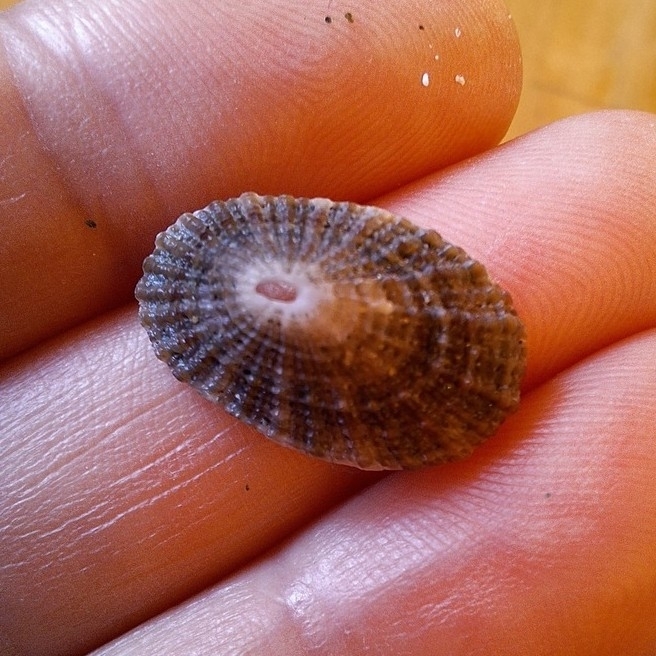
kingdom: Animalia
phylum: Mollusca
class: Gastropoda
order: Lepetellida
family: Fissurellidae
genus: Diodora
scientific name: Diodora graeca
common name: Common keyhole limpet
